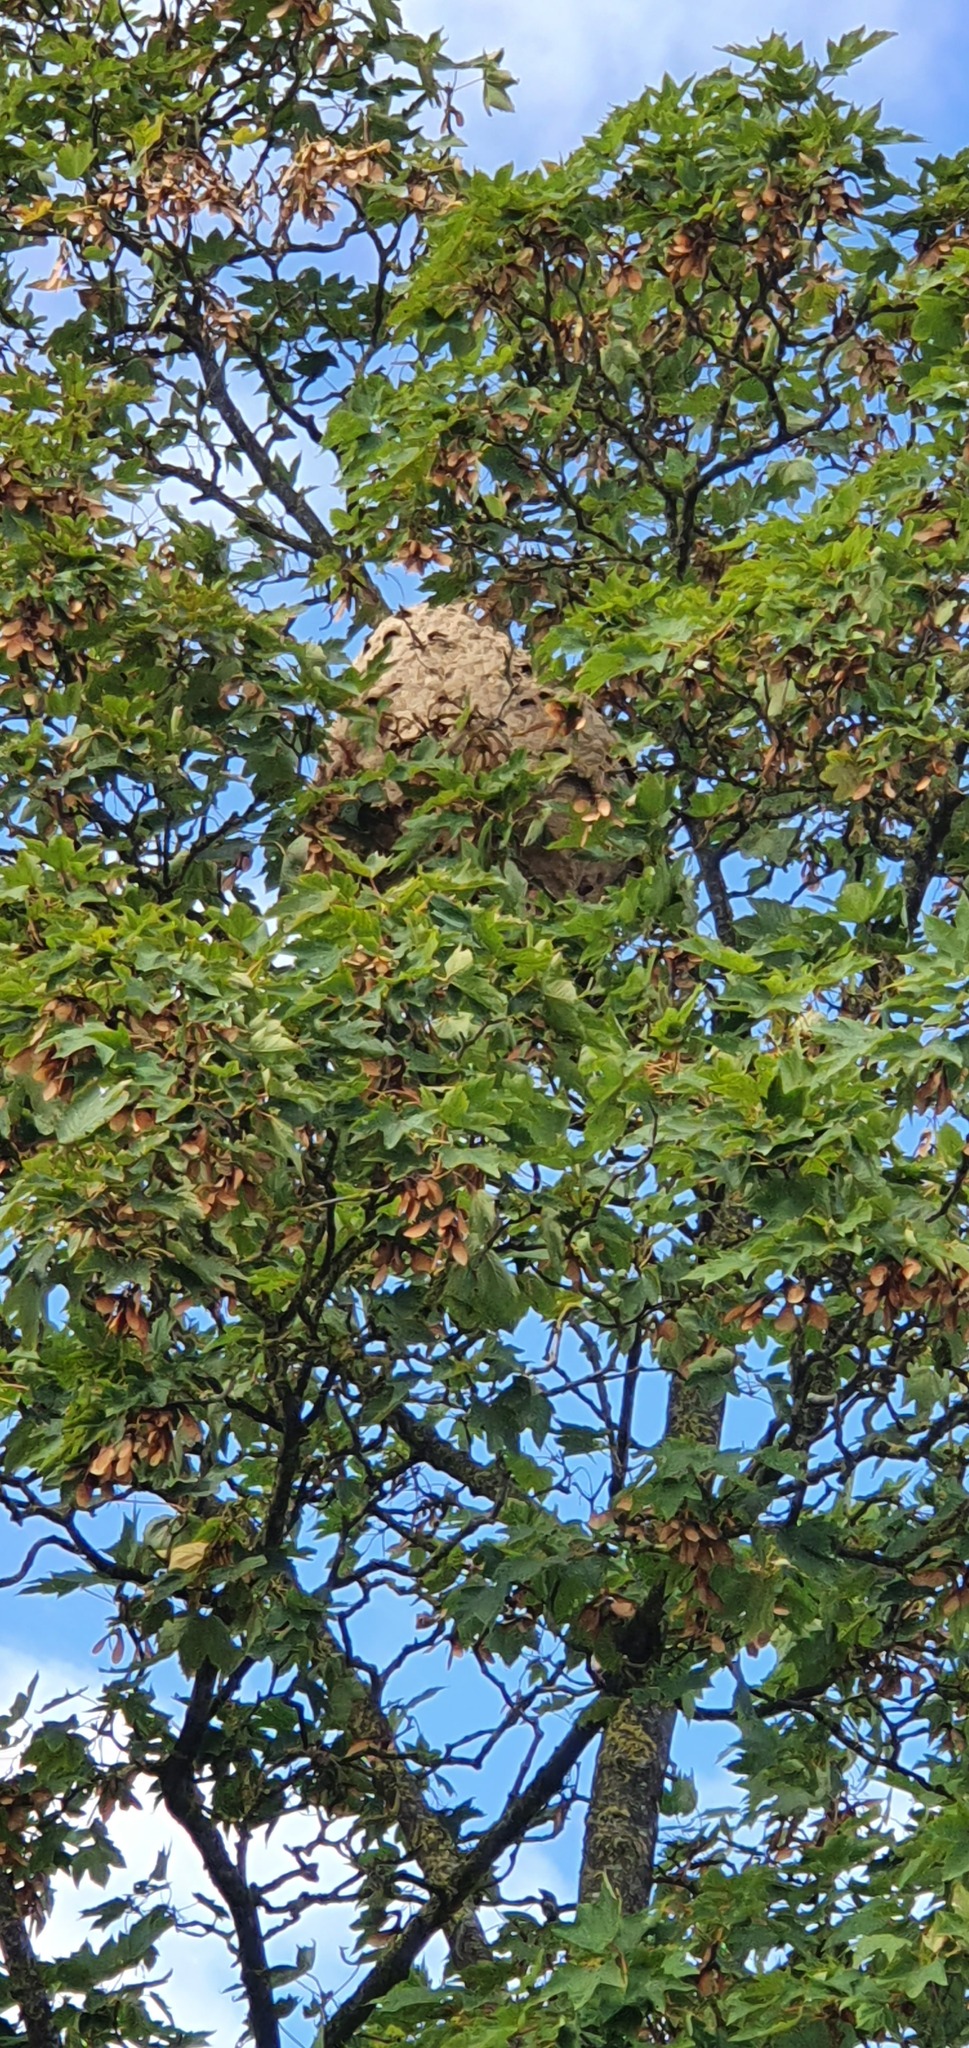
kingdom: Animalia
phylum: Arthropoda
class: Insecta
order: Hymenoptera
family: Vespidae
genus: Vespa
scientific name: Vespa velutina
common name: Asian hornet
